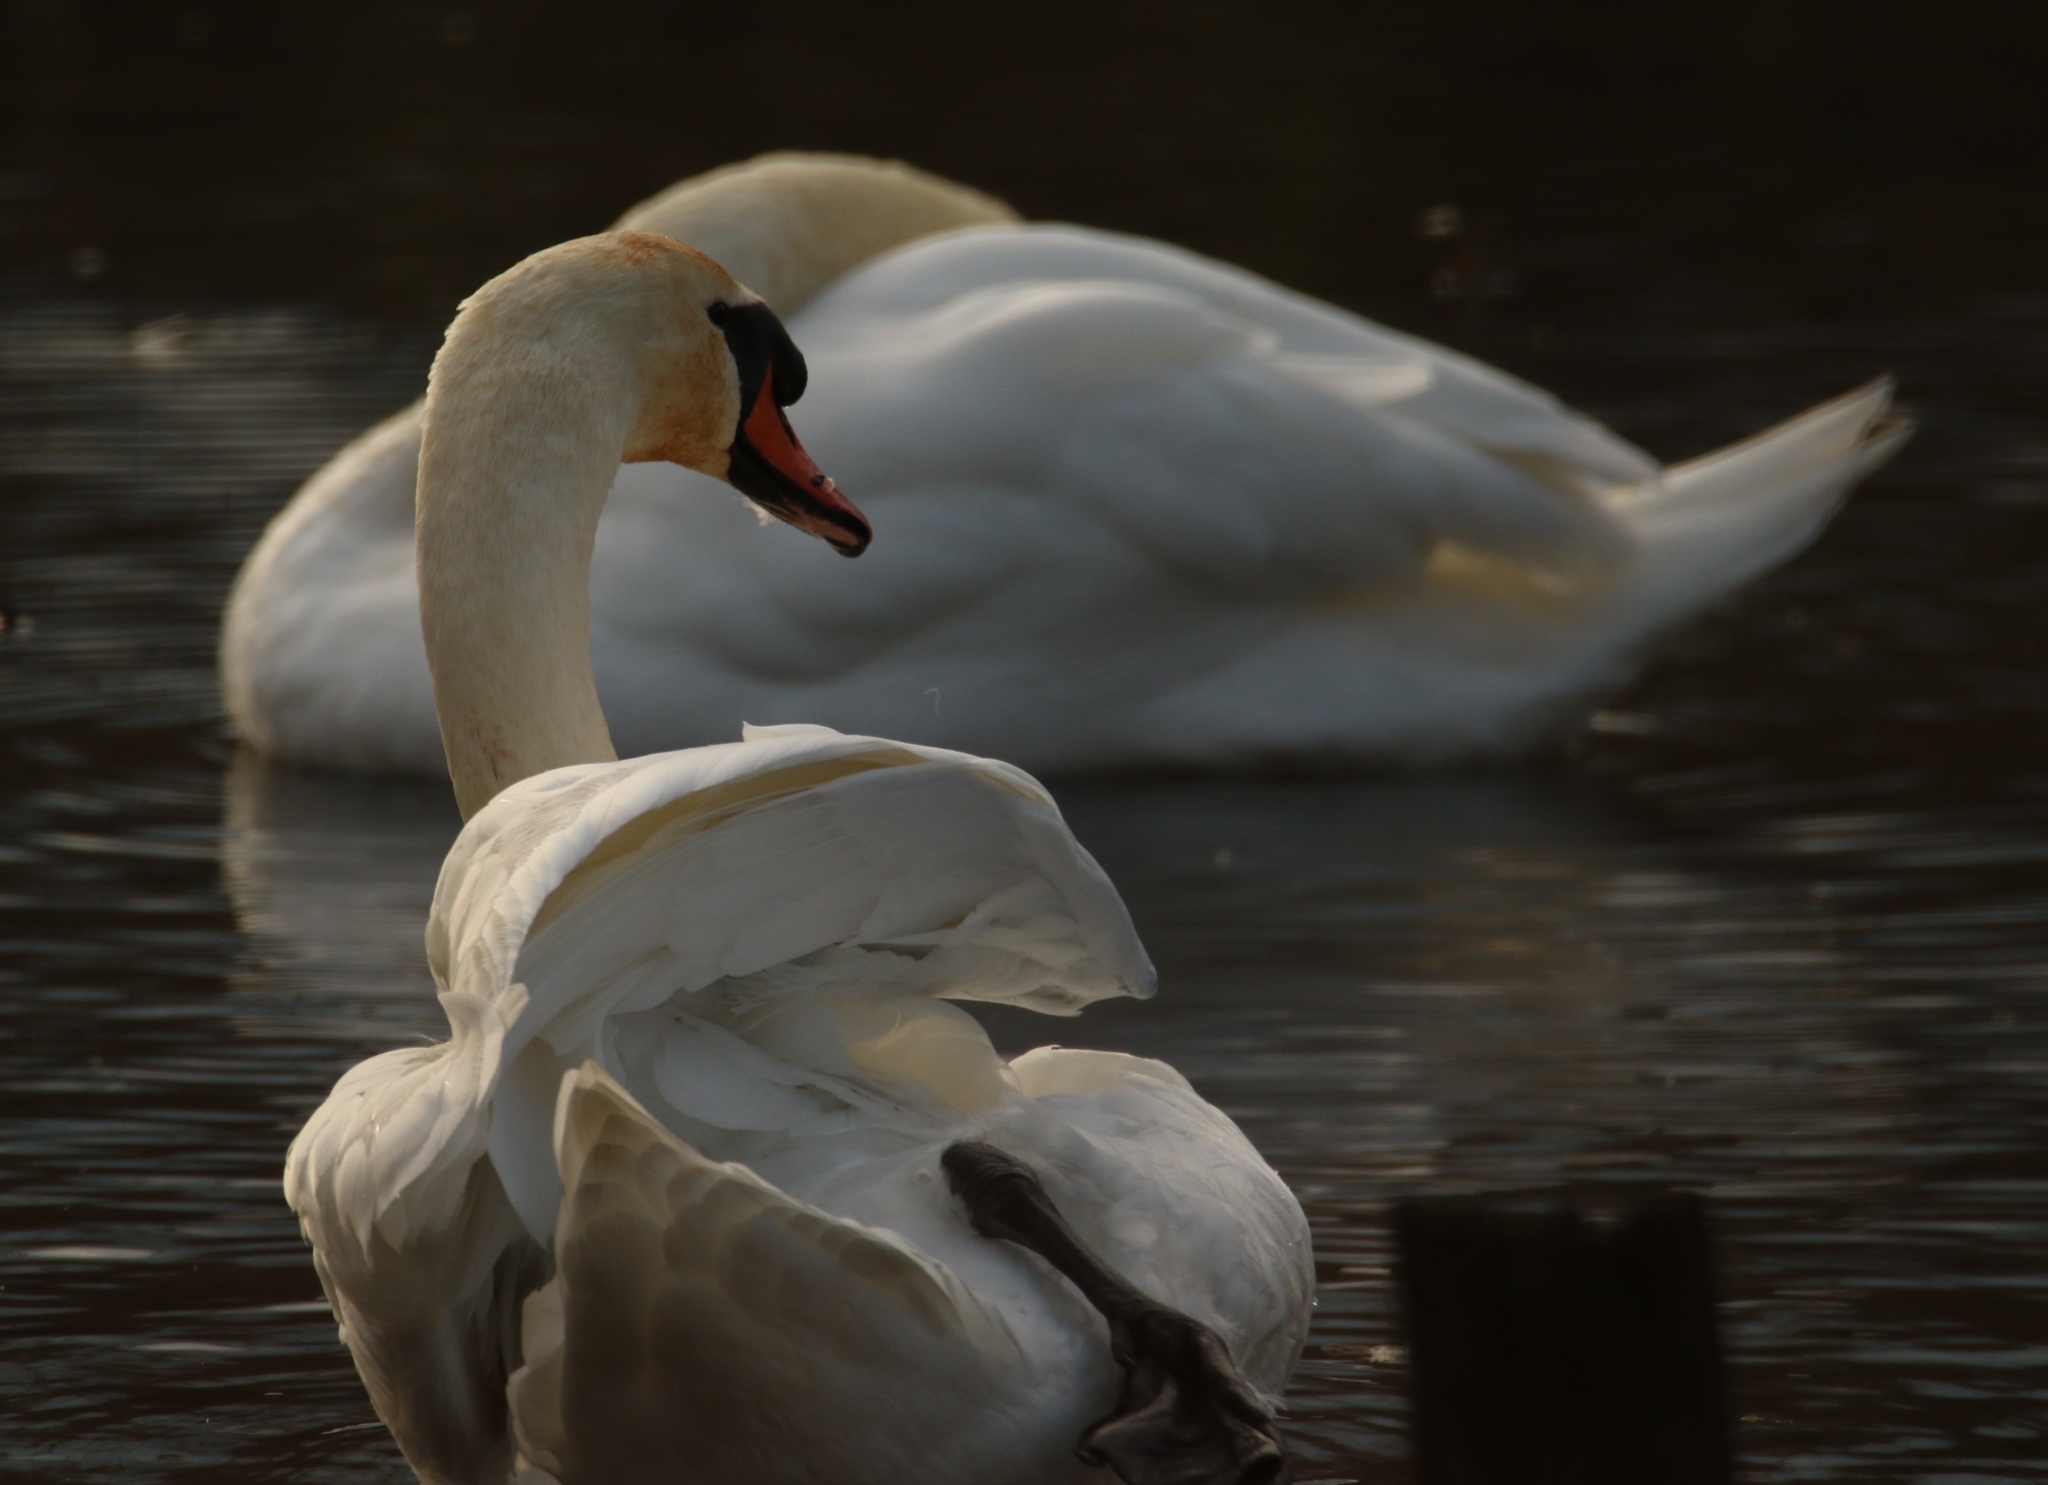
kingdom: Animalia
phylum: Chordata
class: Aves
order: Anseriformes
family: Anatidae
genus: Cygnus
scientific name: Cygnus olor
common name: Mute swan
